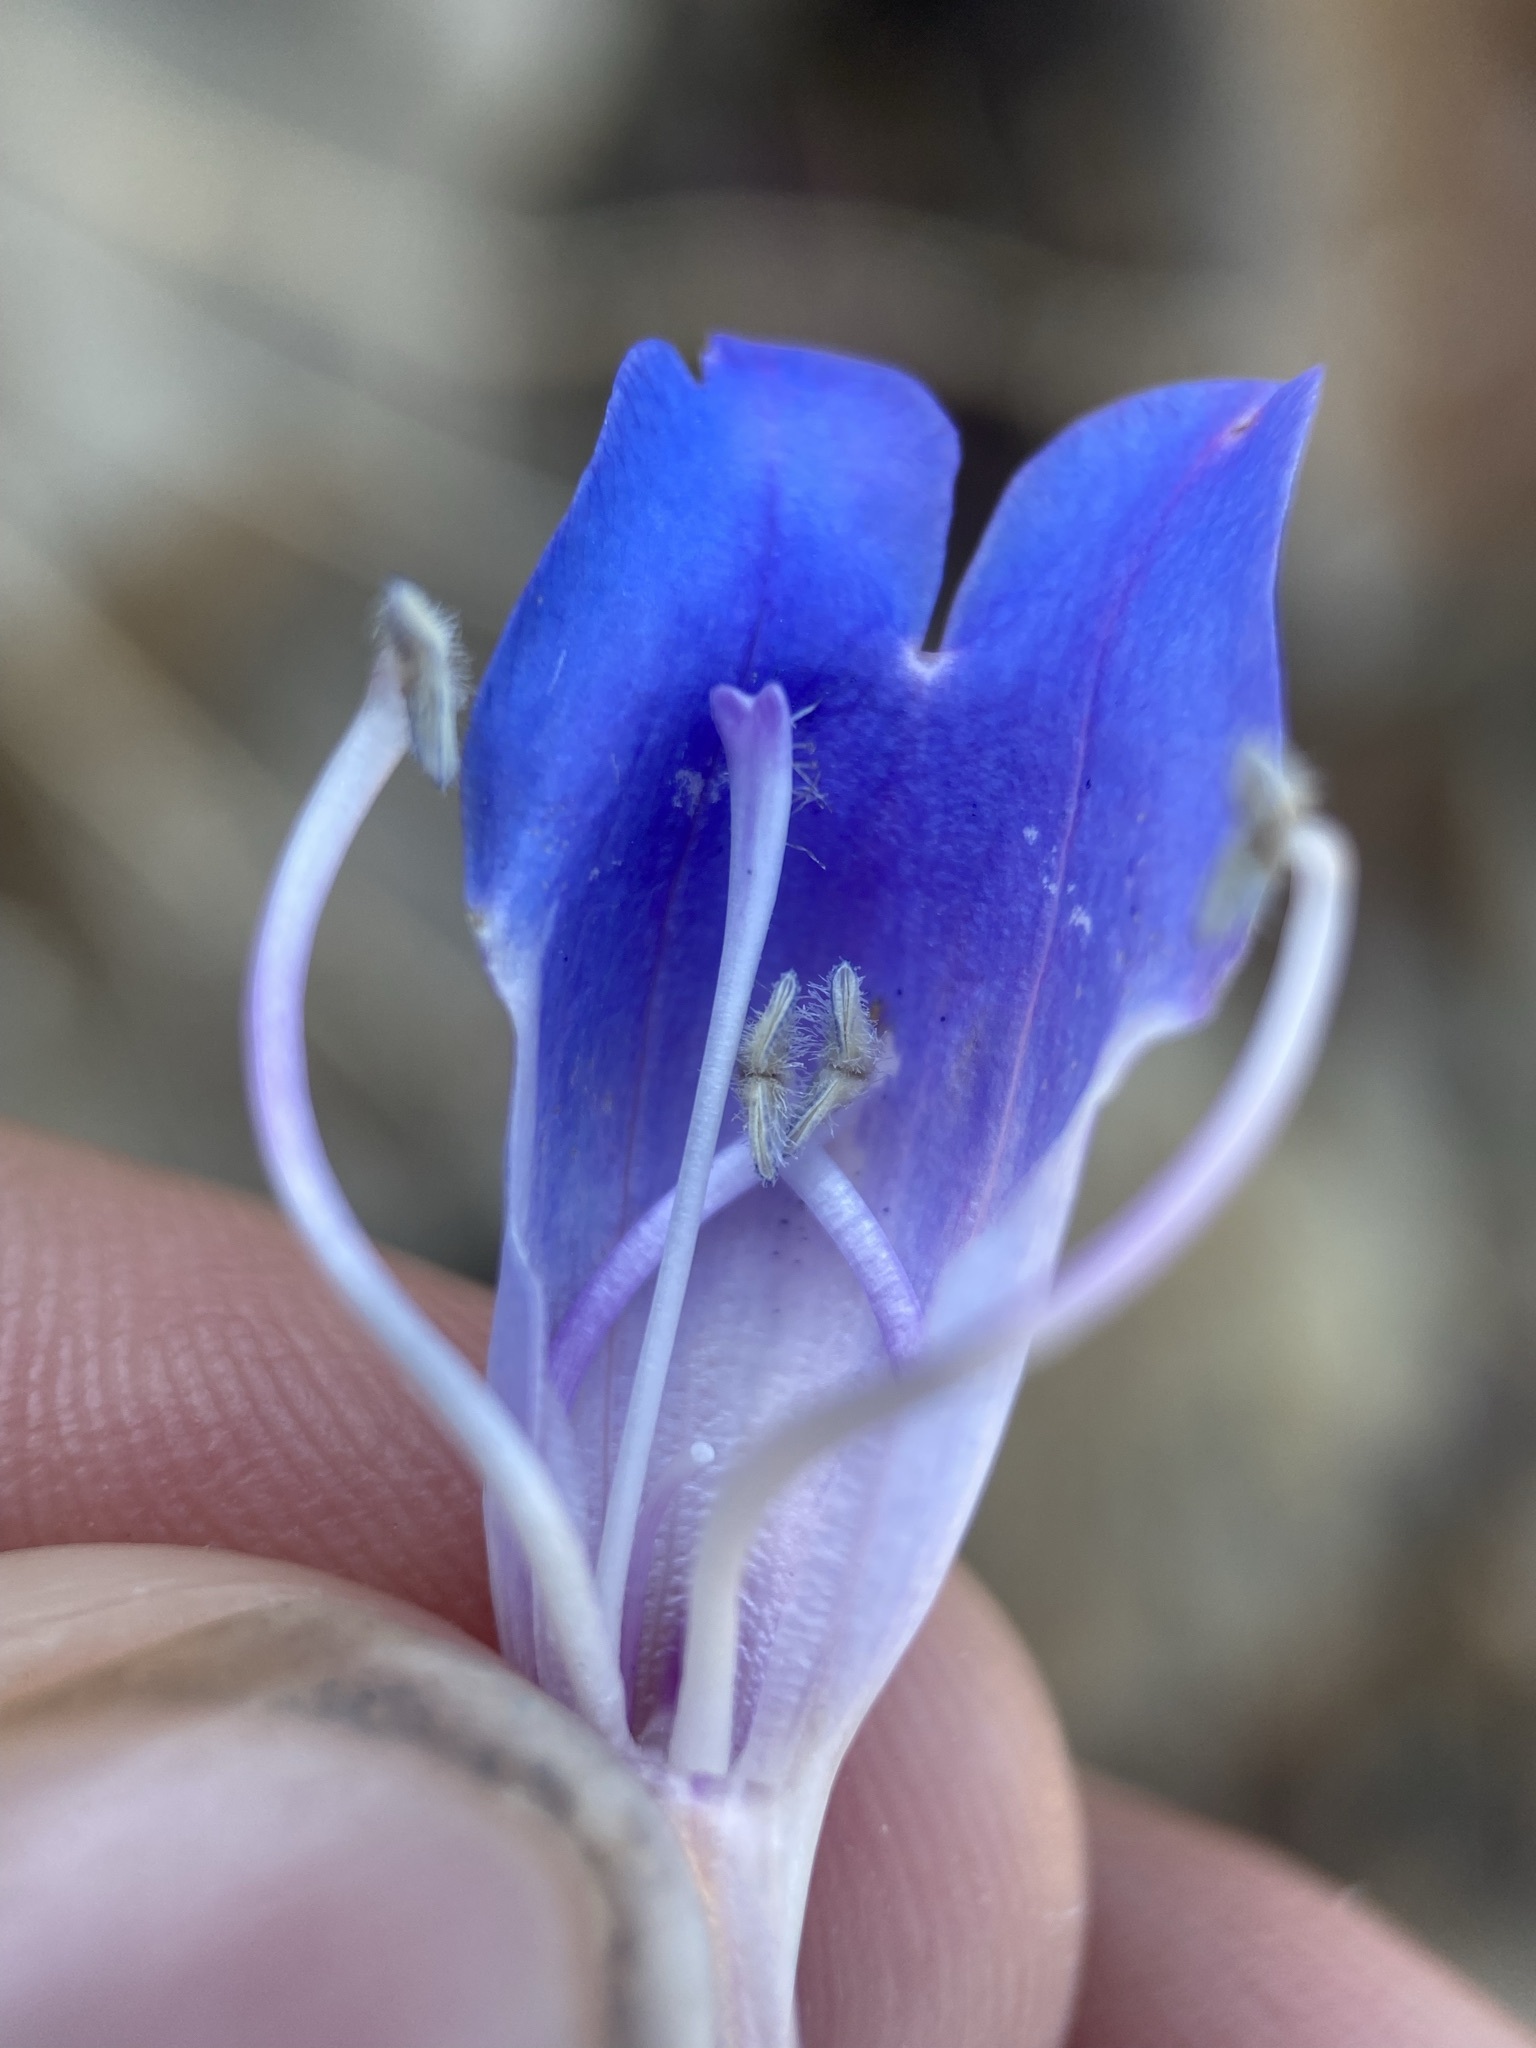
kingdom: Plantae
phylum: Tracheophyta
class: Magnoliopsida
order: Lamiales
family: Plantaginaceae
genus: Penstemon
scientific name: Penstemon glaber
